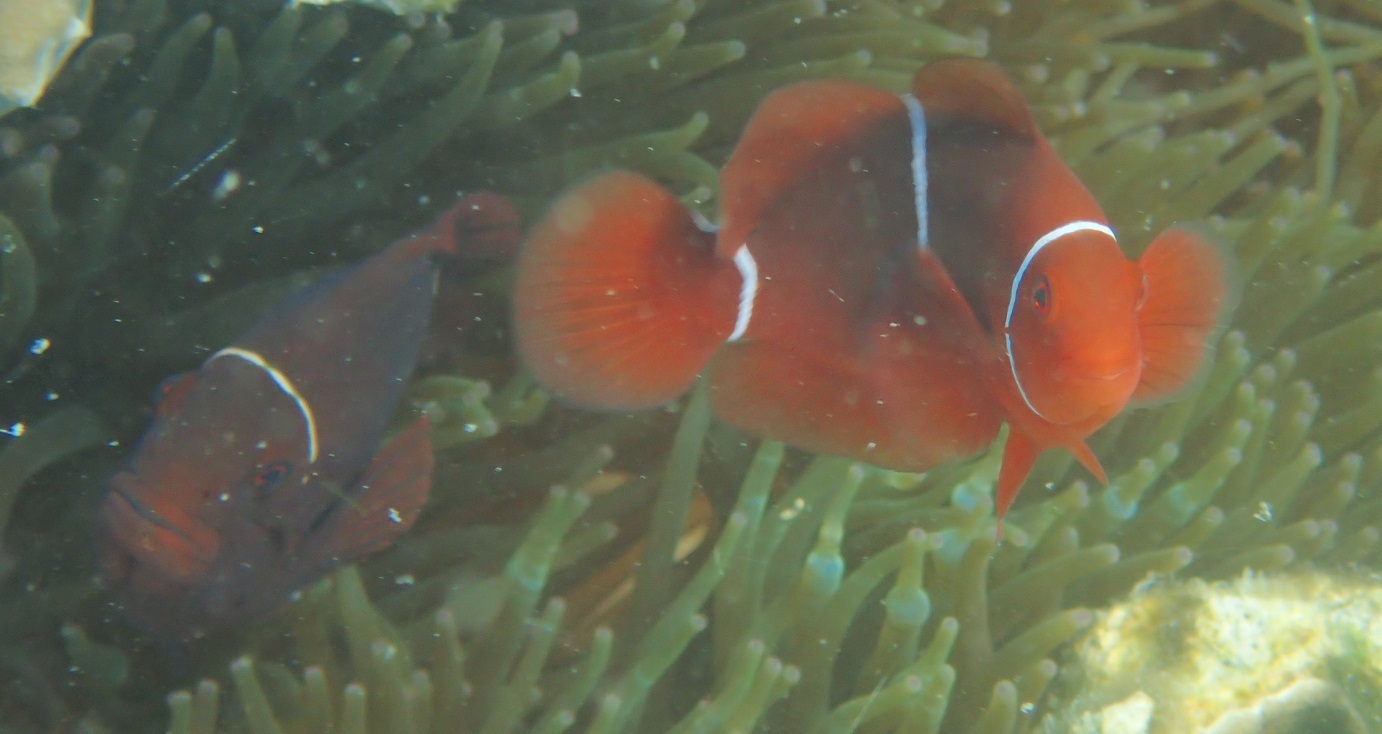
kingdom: Animalia
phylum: Chordata
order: Perciformes
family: Pomacentridae
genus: Premnas
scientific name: Premnas biaculeatus
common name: Spinecheek anemonefish
